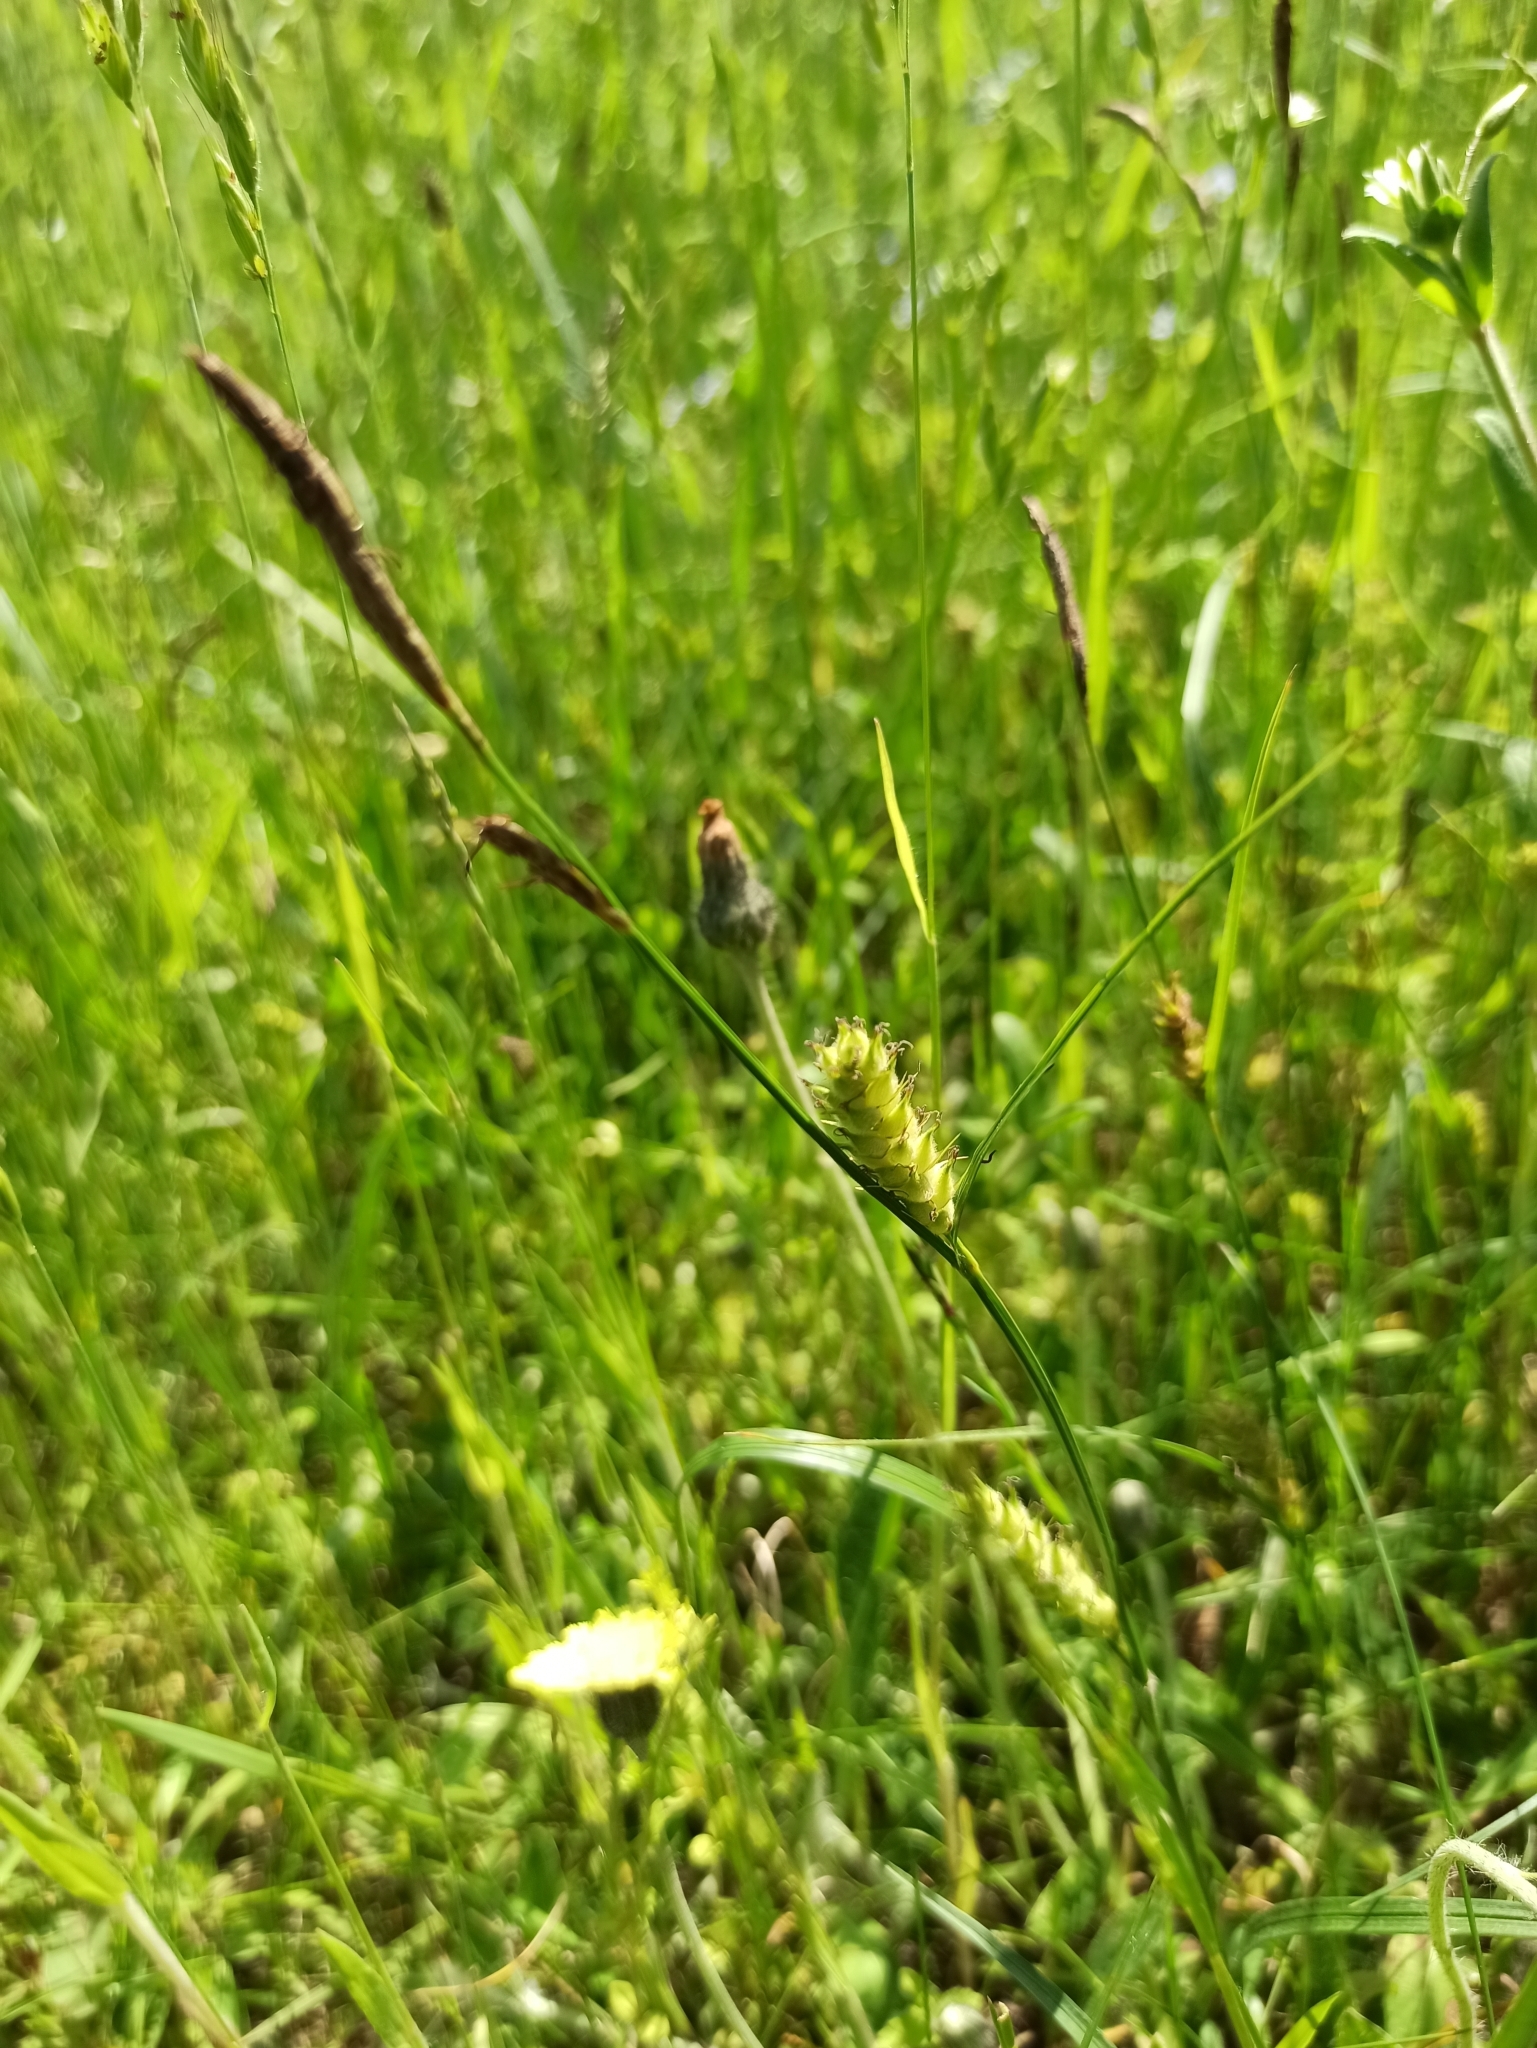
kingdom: Plantae
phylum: Tracheophyta
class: Liliopsida
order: Poales
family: Cyperaceae
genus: Carex
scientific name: Carex hirta
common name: Hairy sedge
